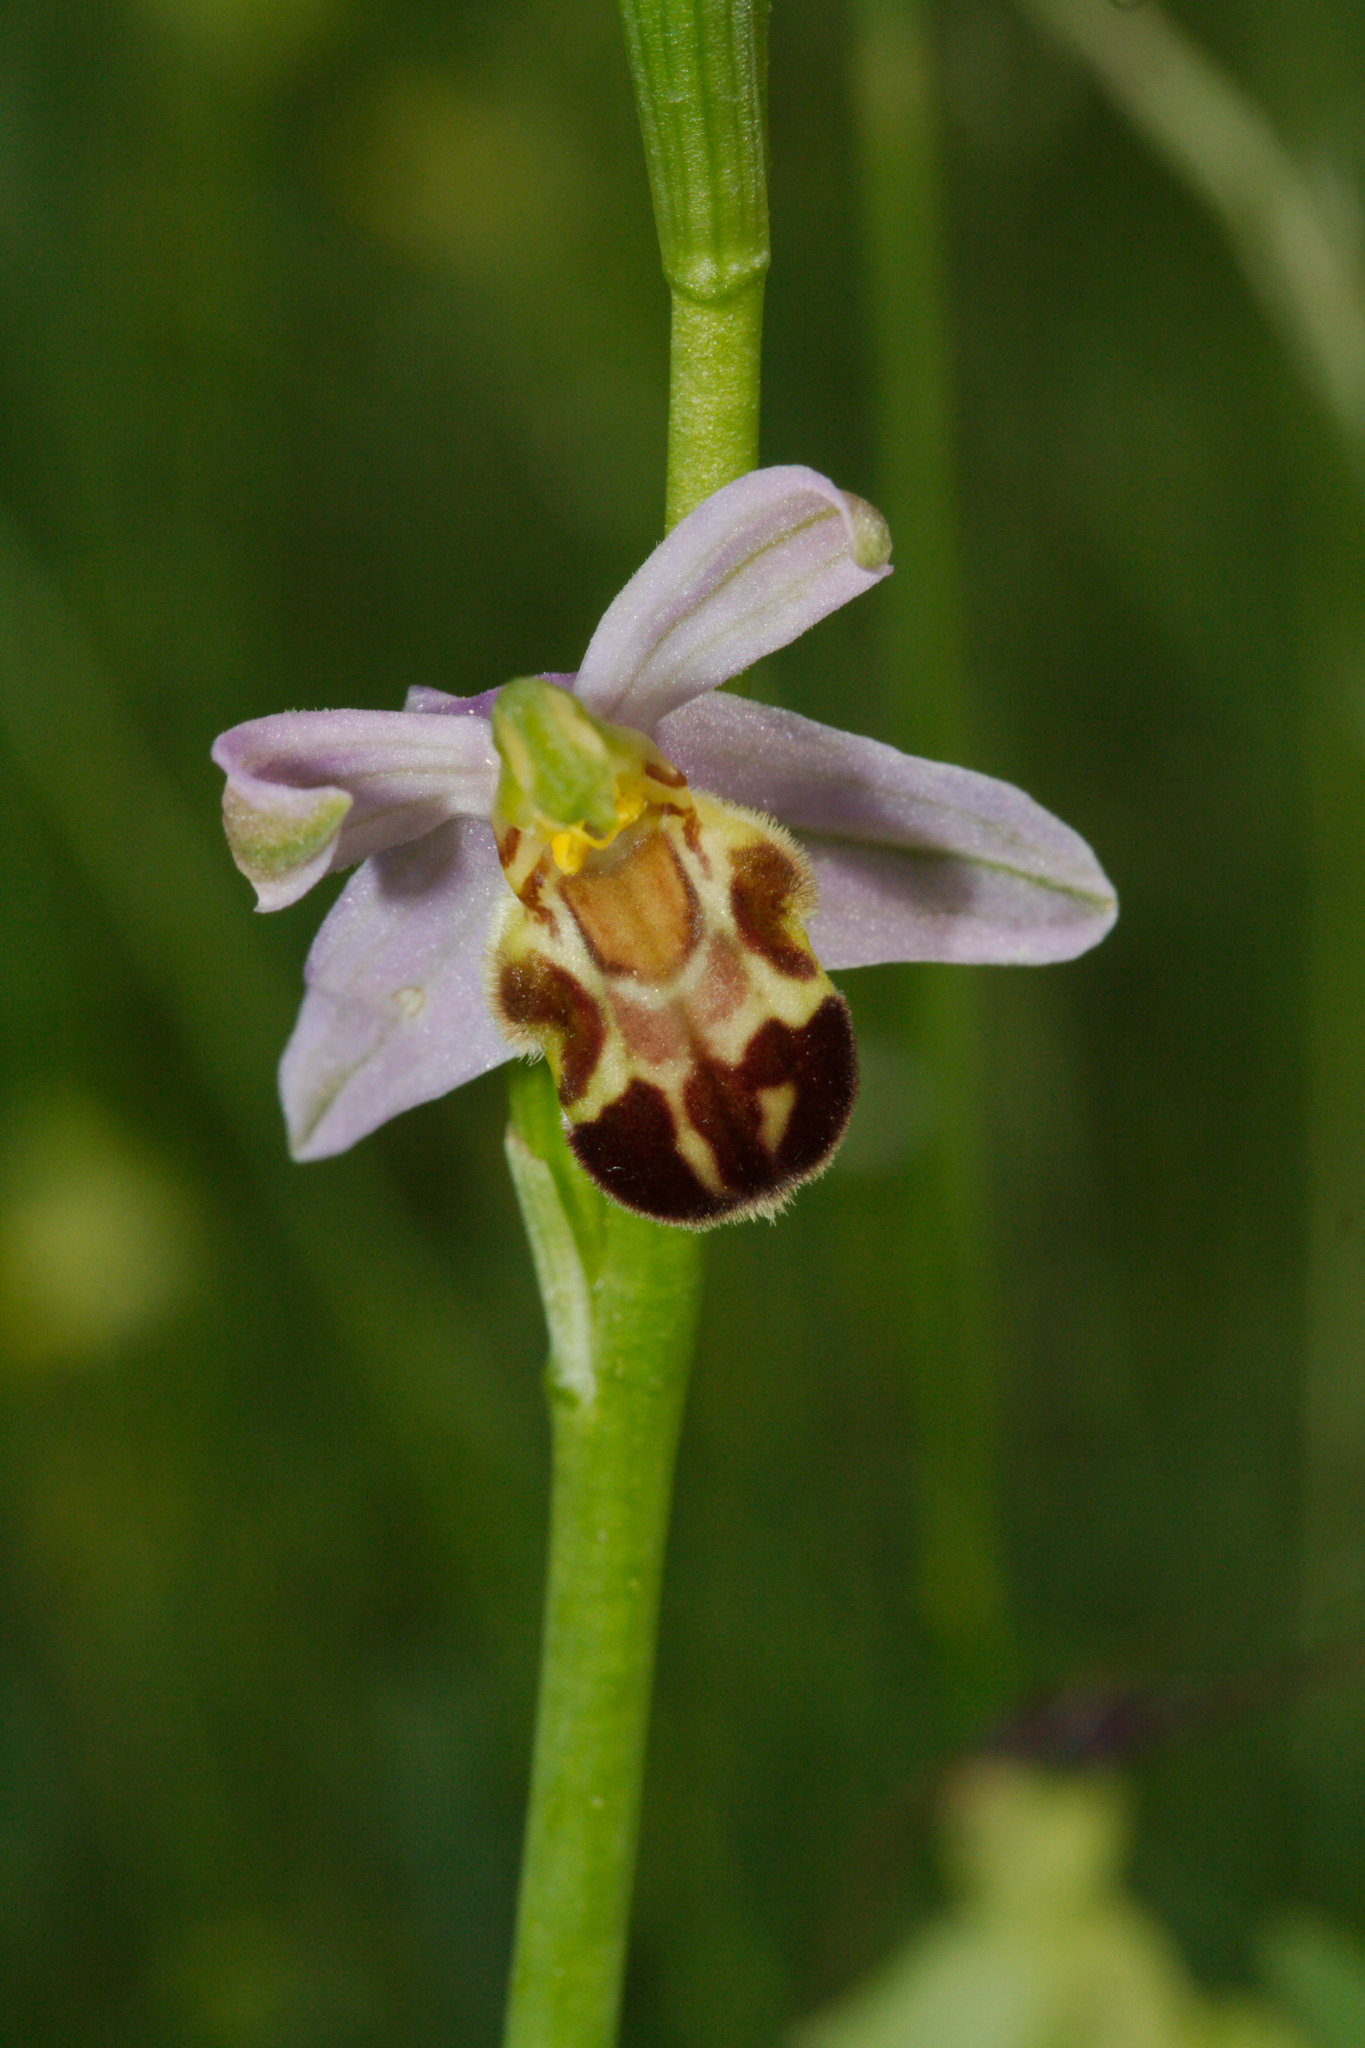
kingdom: Plantae
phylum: Tracheophyta
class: Liliopsida
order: Asparagales
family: Orchidaceae
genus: Ophrys
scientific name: Ophrys apifera
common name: Bee orchid
